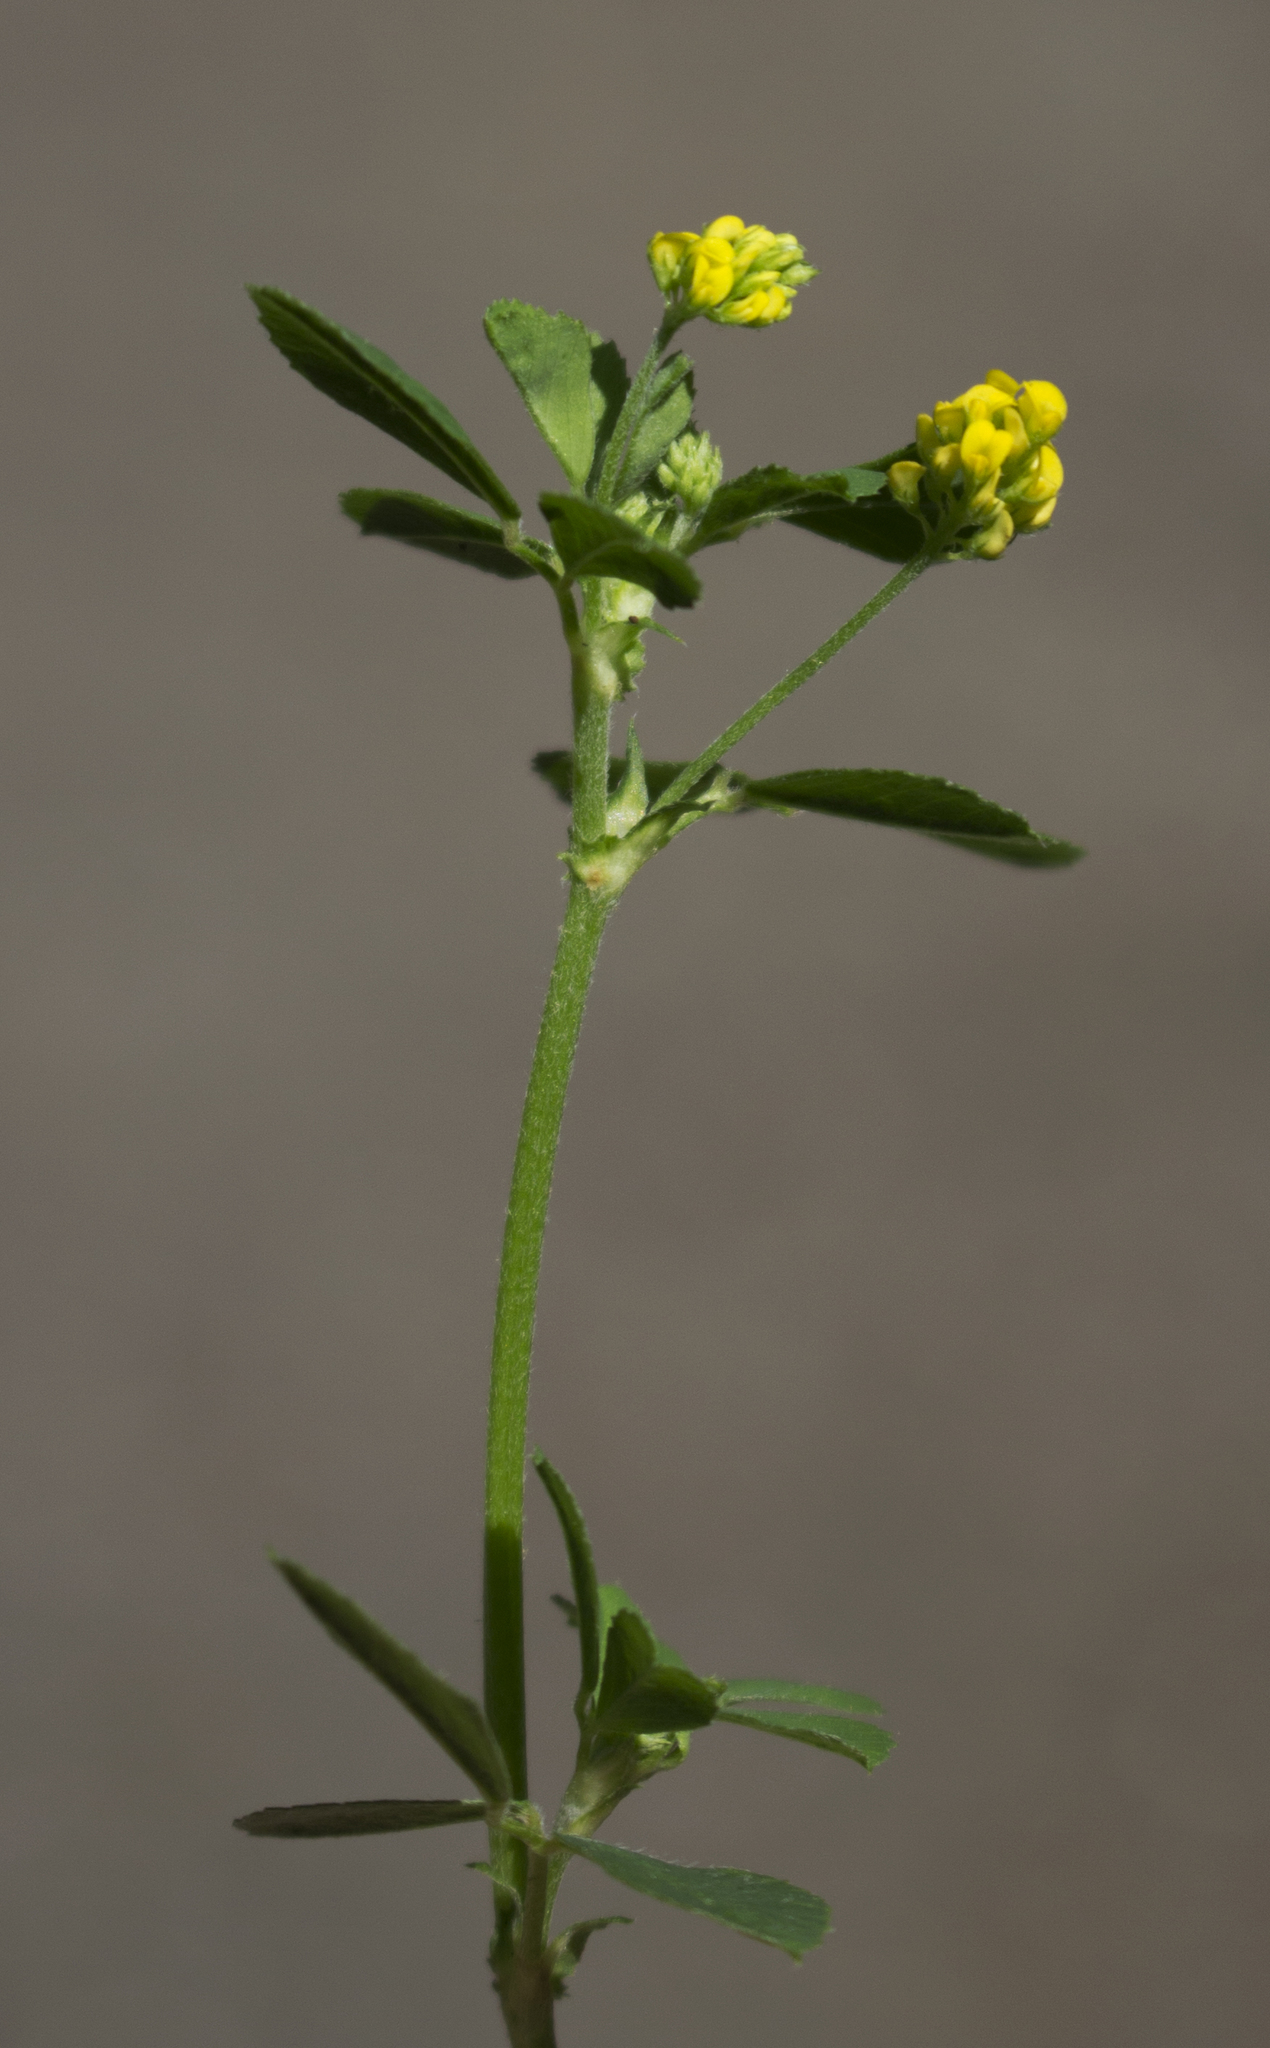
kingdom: Plantae
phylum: Tracheophyta
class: Magnoliopsida
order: Fabales
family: Fabaceae
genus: Medicago
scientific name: Medicago lupulina
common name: Black medick
